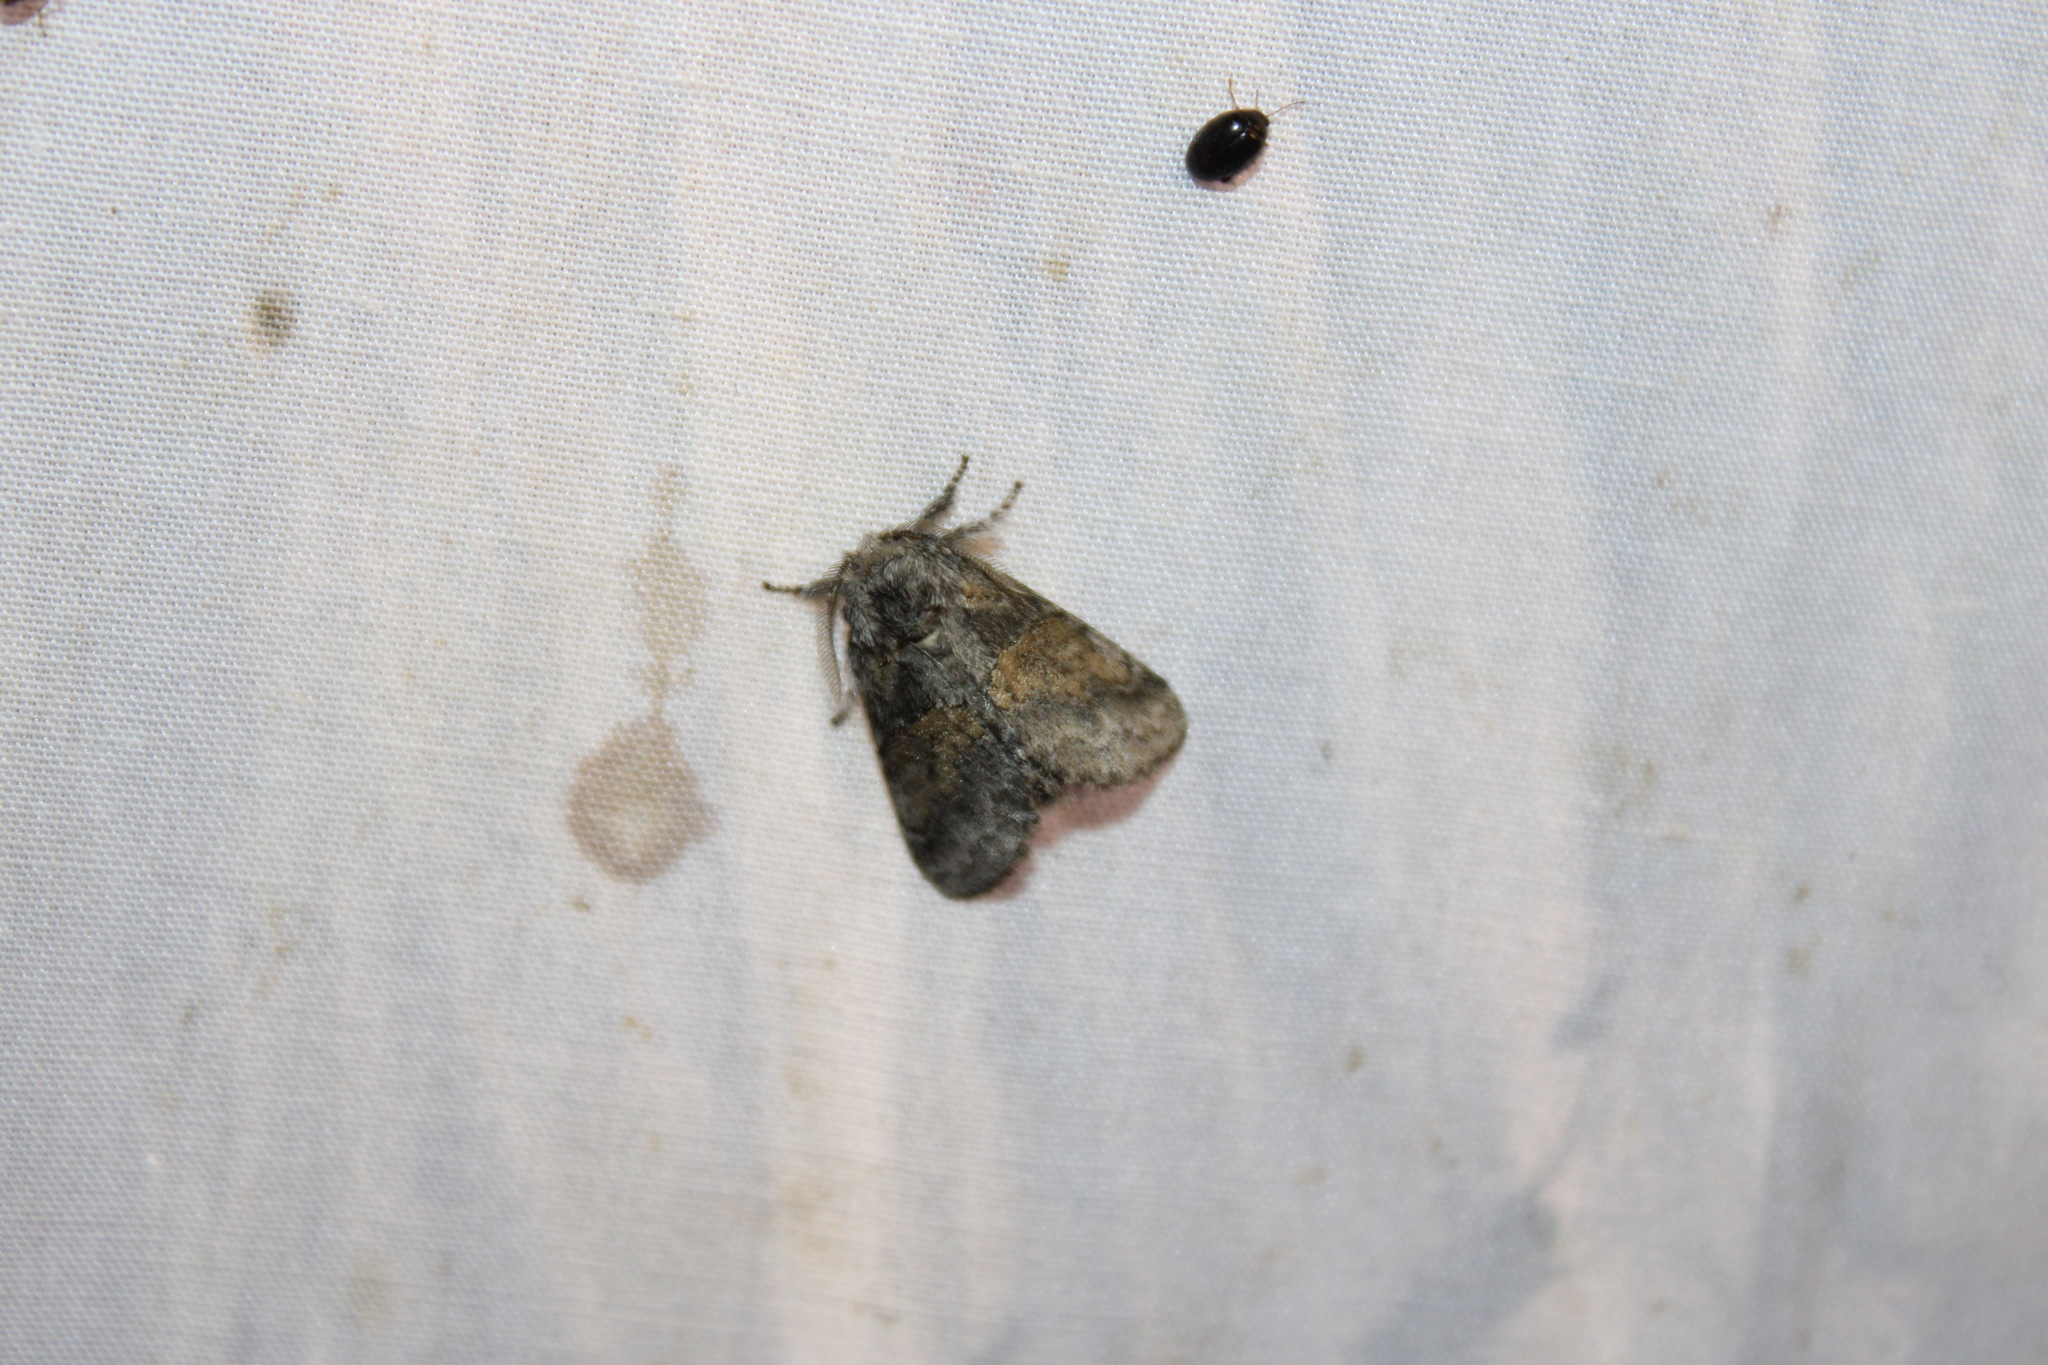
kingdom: Animalia
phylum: Arthropoda
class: Insecta
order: Lepidoptera
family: Notodontidae
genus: Gluphisia
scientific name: Gluphisia septentrionis
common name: Common gluphisia
